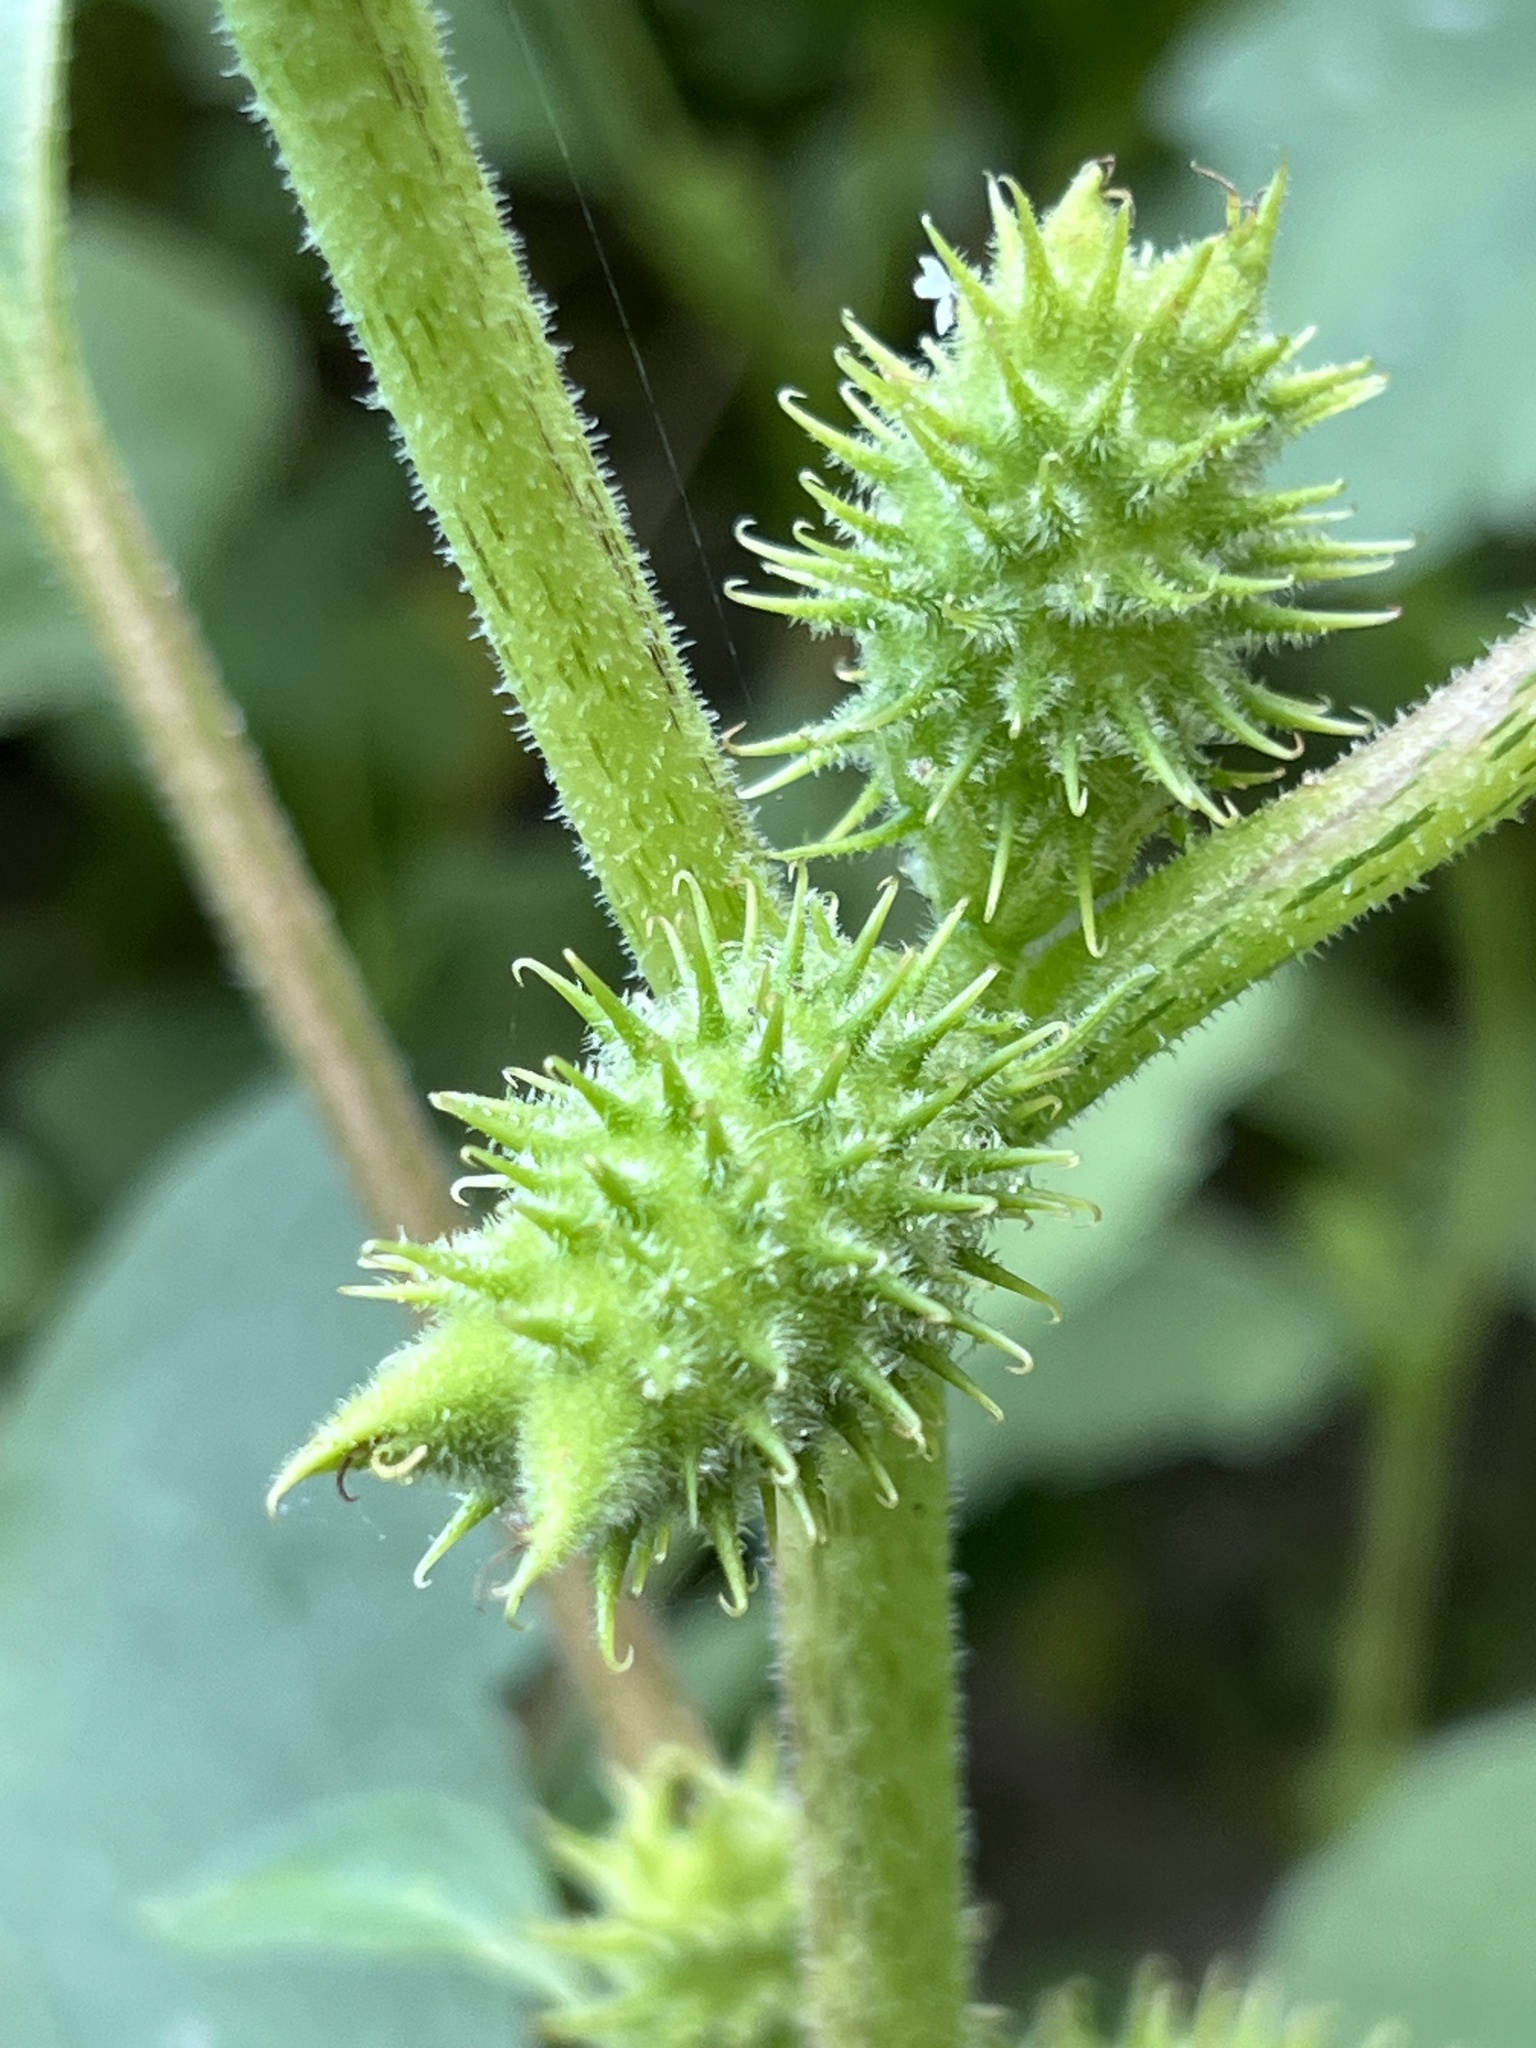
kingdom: Plantae
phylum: Tracheophyta
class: Magnoliopsida
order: Asterales
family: Asteraceae
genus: Xanthium
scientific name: Xanthium strumarium
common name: Rough cocklebur
